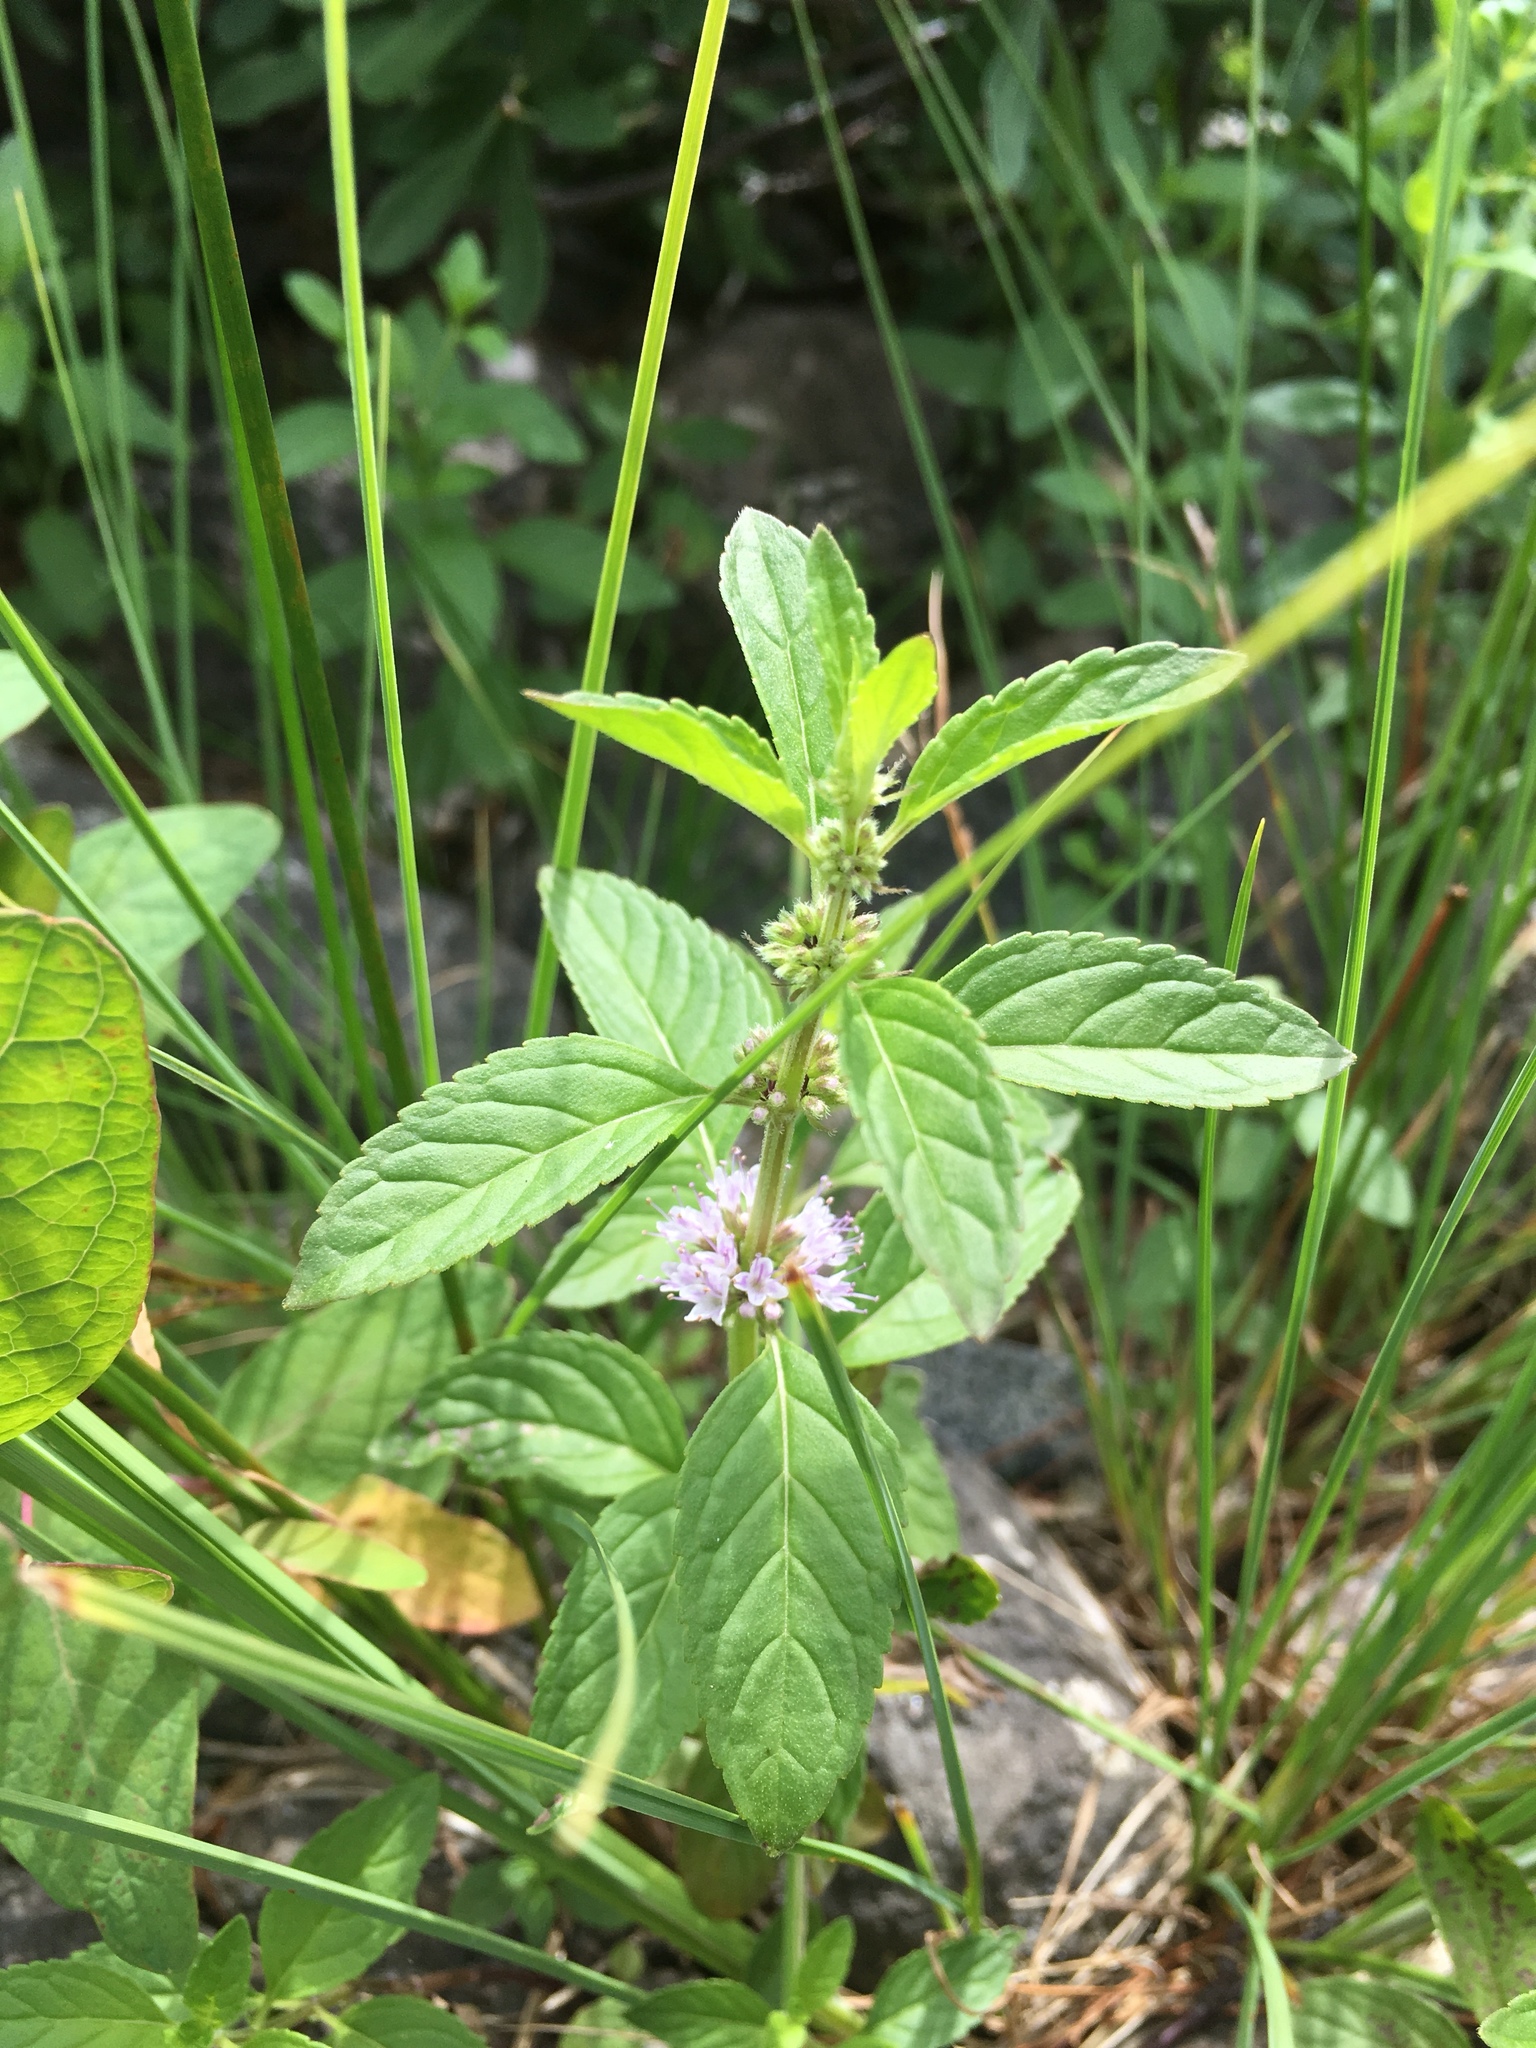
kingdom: Plantae
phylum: Tracheophyta
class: Magnoliopsida
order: Lamiales
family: Lamiaceae
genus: Mentha
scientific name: Mentha arvensis
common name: Corn mint
